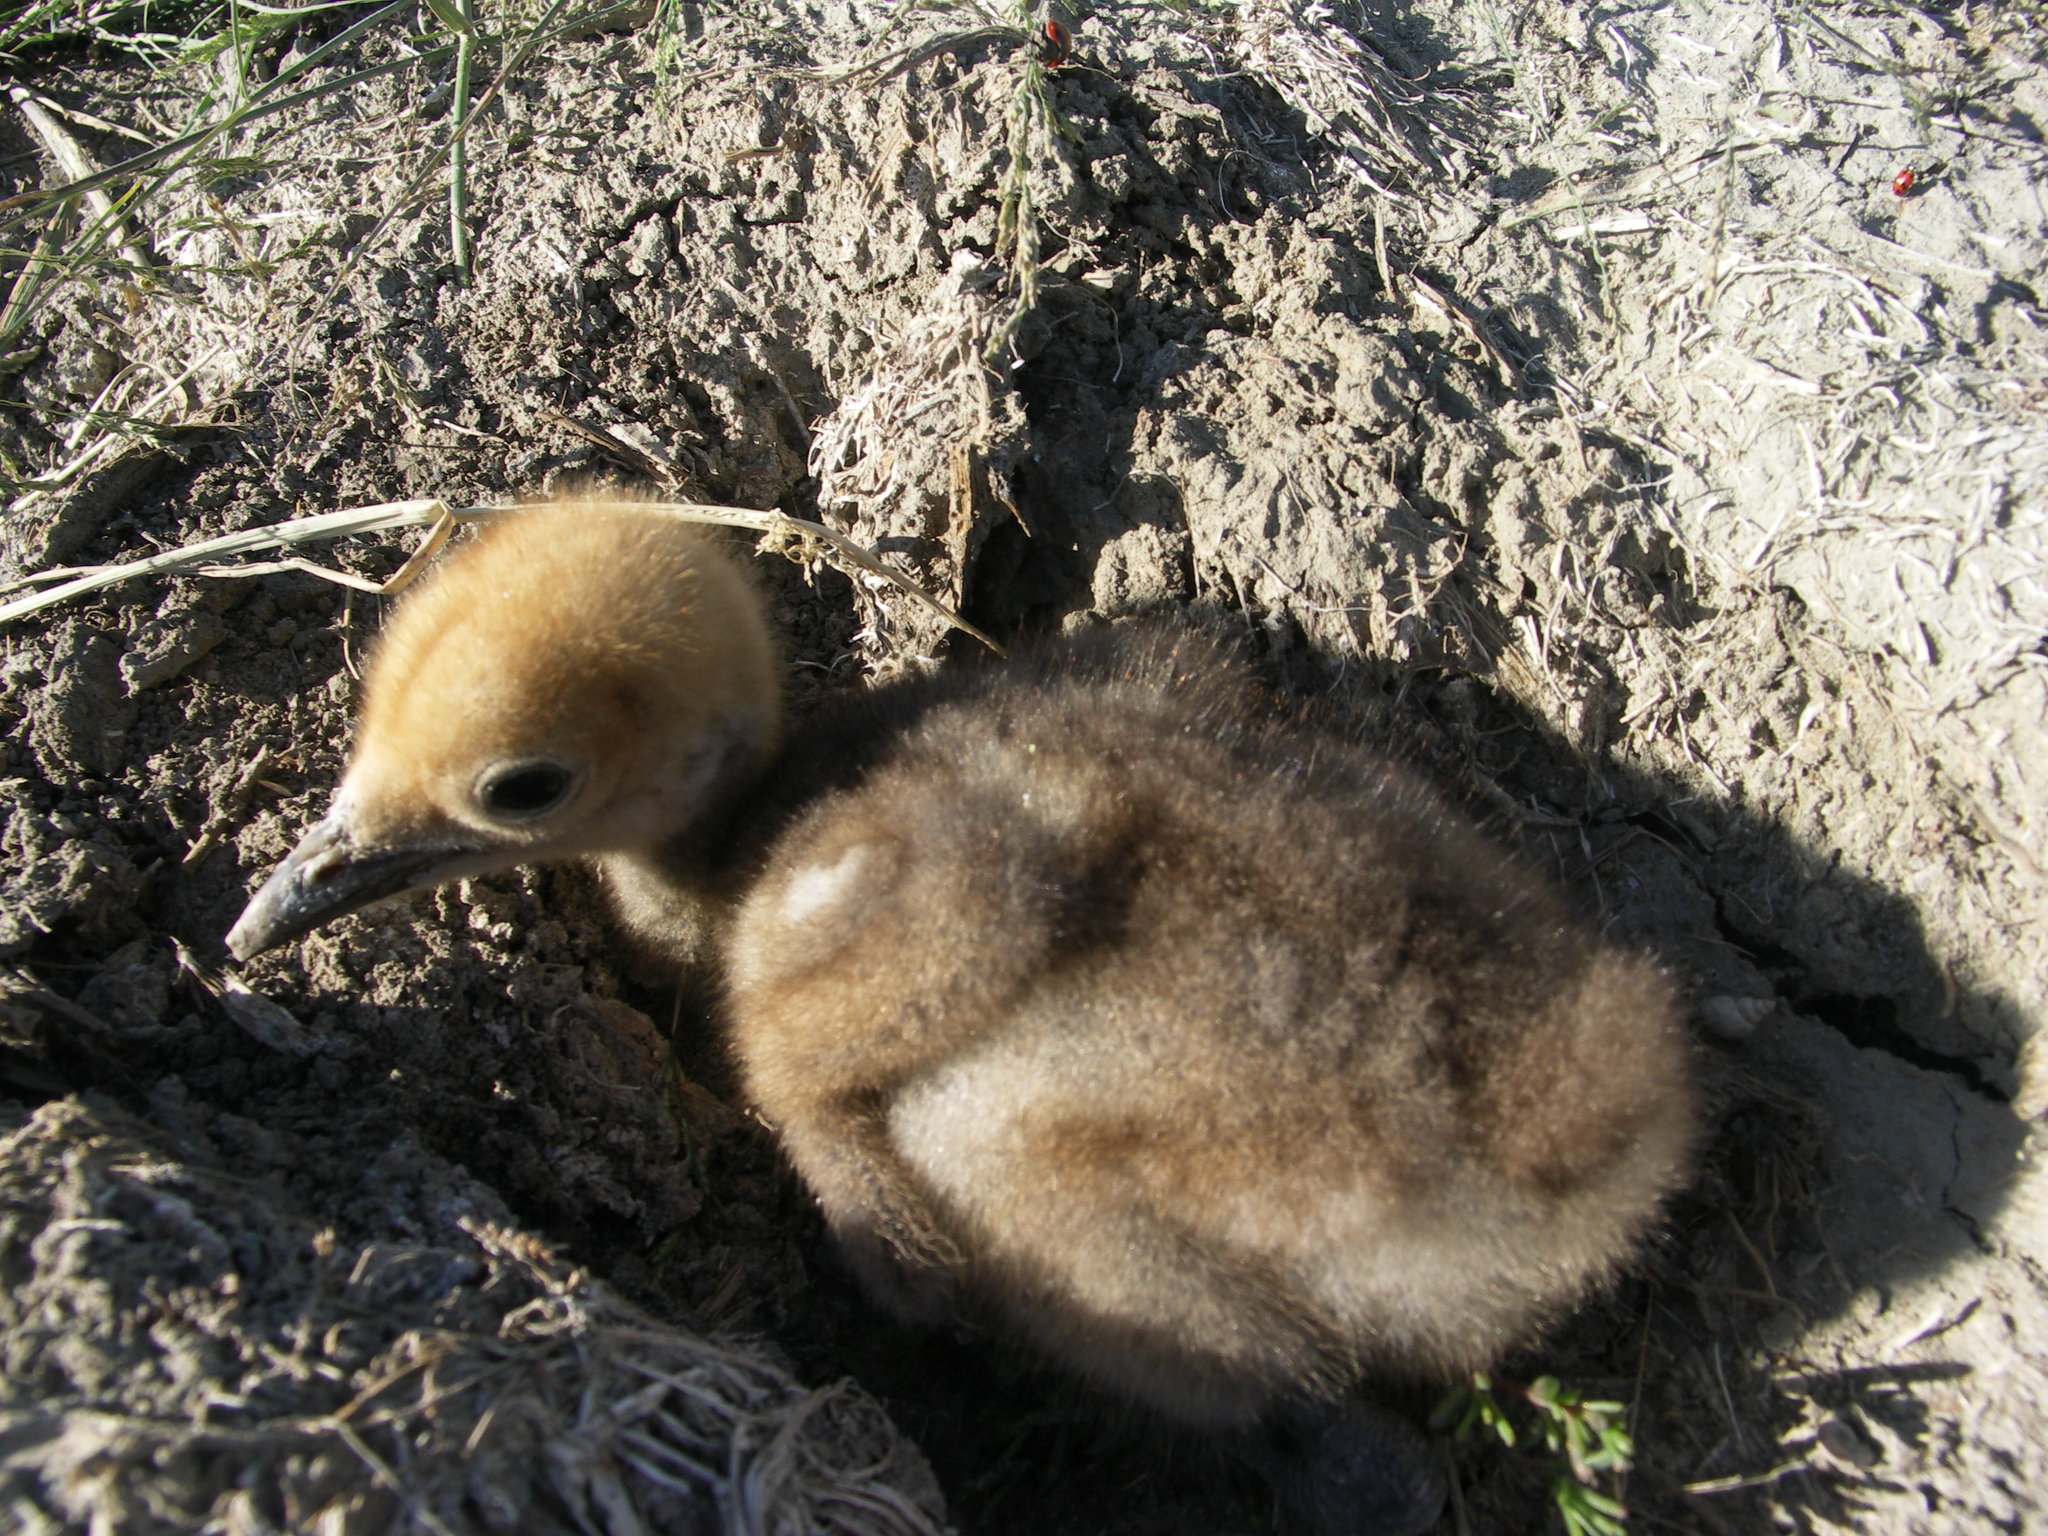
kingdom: Animalia
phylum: Chordata
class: Aves
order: Gruiformes
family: Gruidae
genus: Anthropoides
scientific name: Anthropoides virgo
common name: Demoiselle crane
